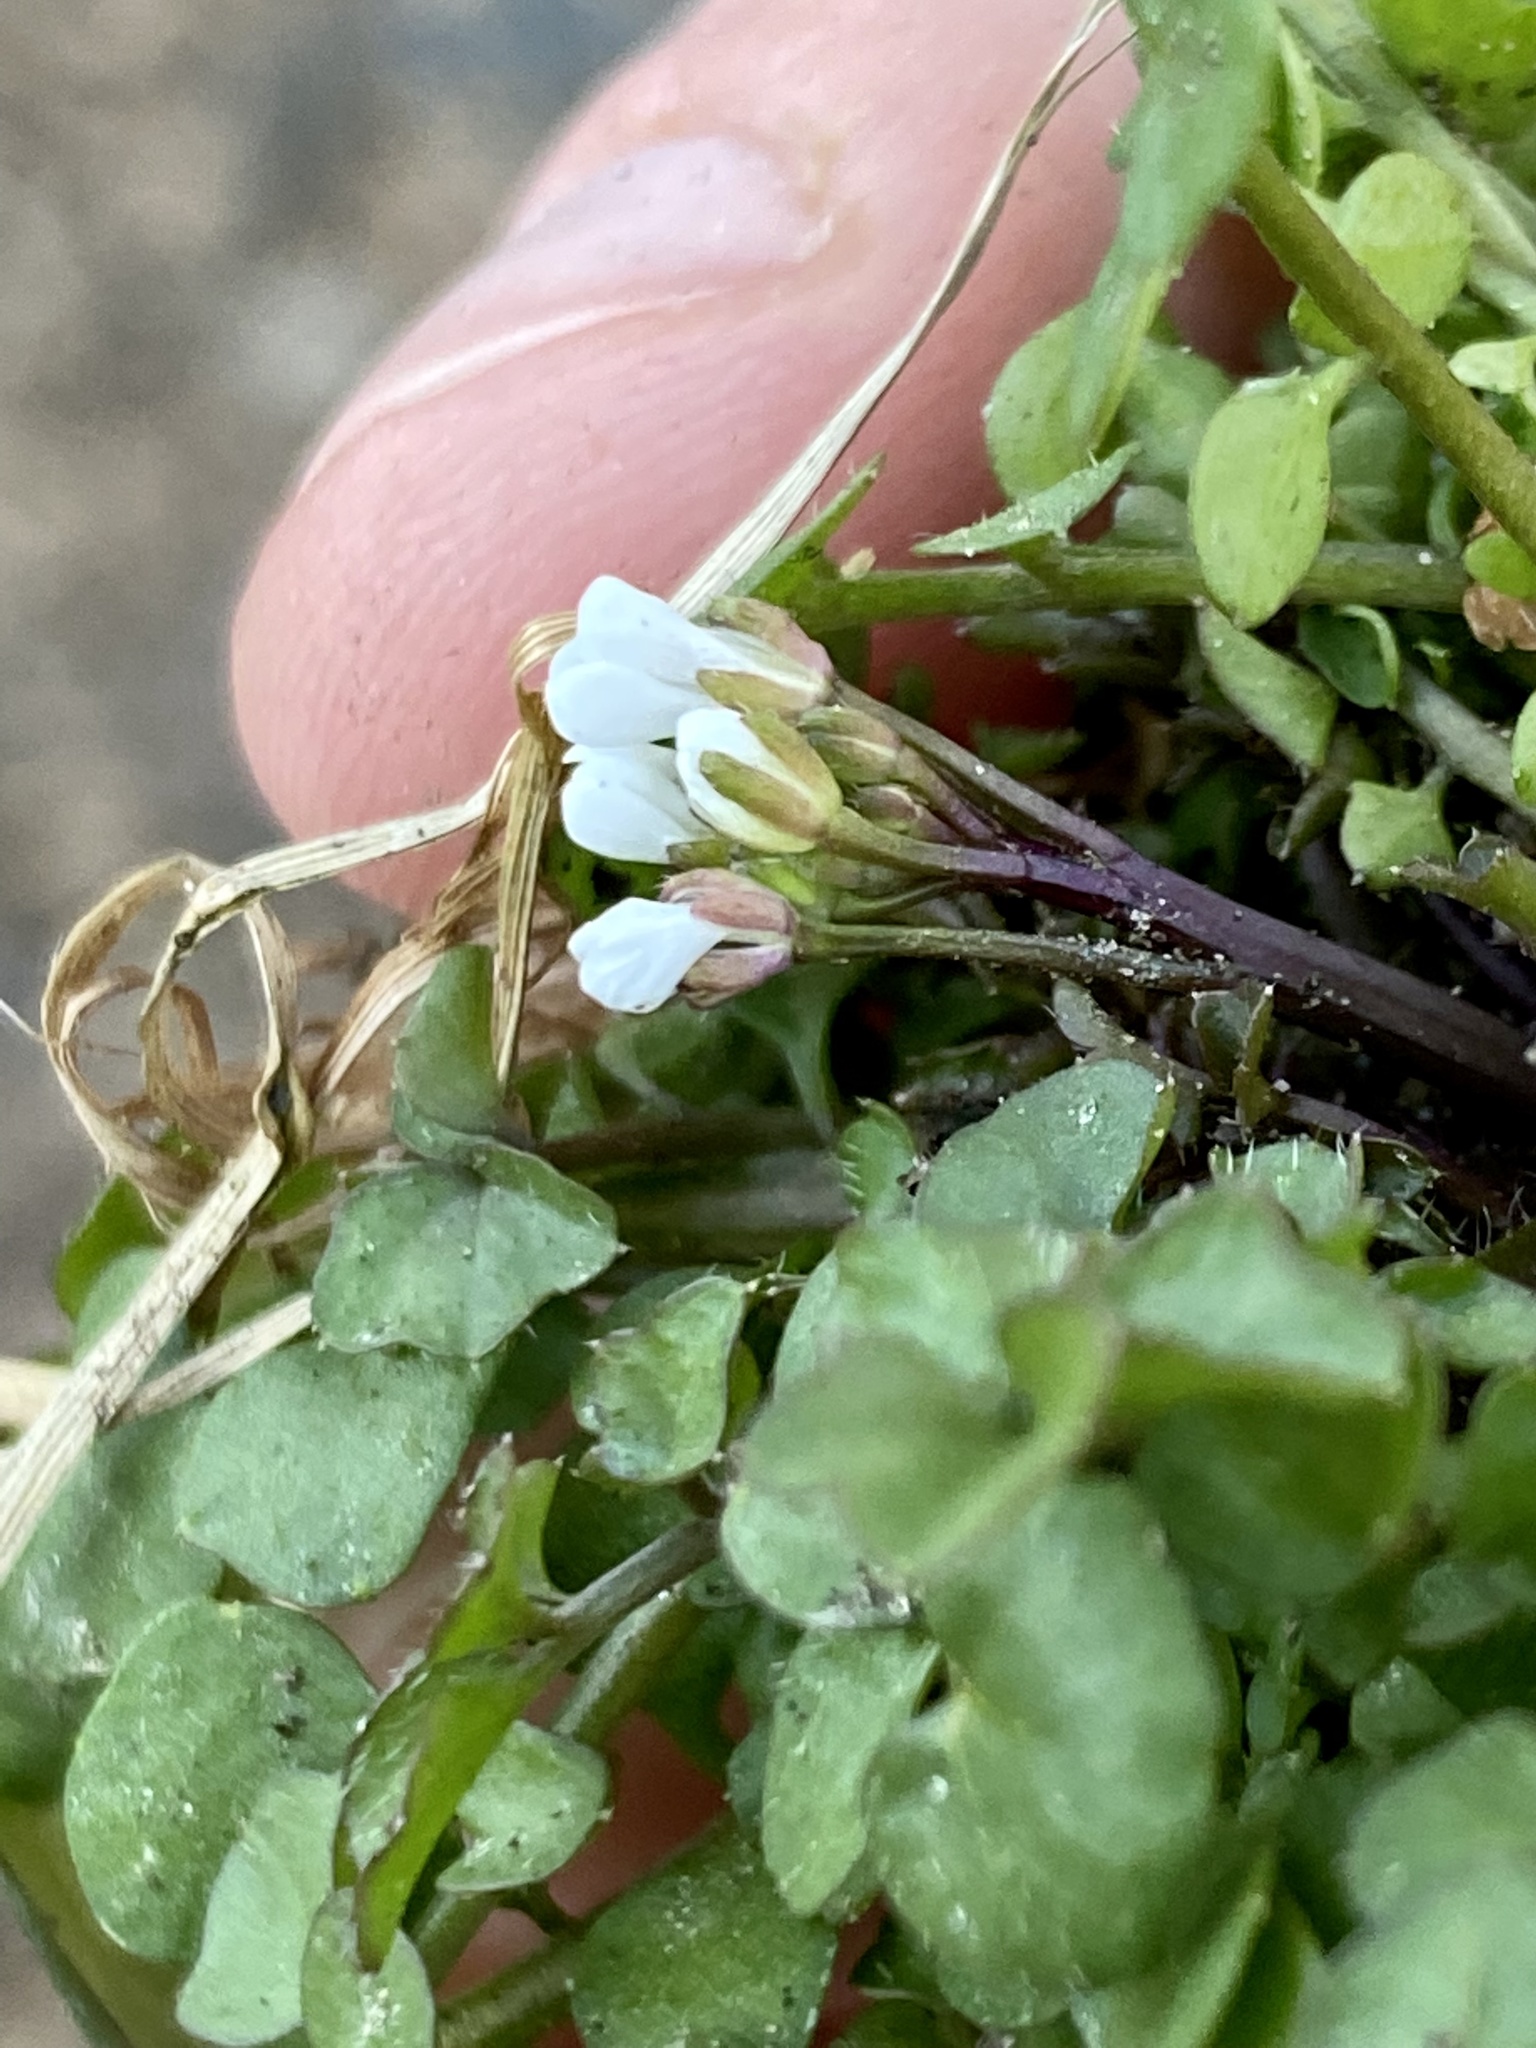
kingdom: Plantae
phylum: Tracheophyta
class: Magnoliopsida
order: Brassicales
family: Brassicaceae
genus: Cardamine
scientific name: Cardamine hirsuta
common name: Hairy bittercress
